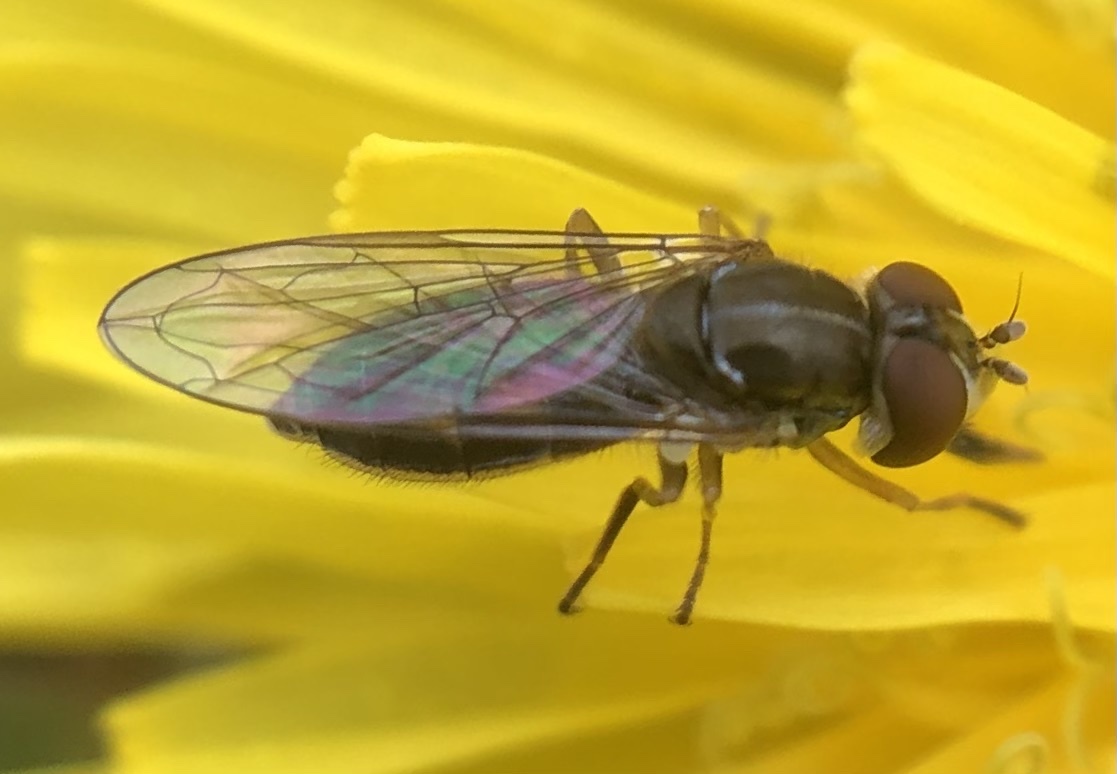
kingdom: Animalia
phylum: Arthropoda
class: Insecta
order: Diptera
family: Syrphidae
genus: Toxomerus
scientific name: Toxomerus marginatus
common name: Syrphid fly
